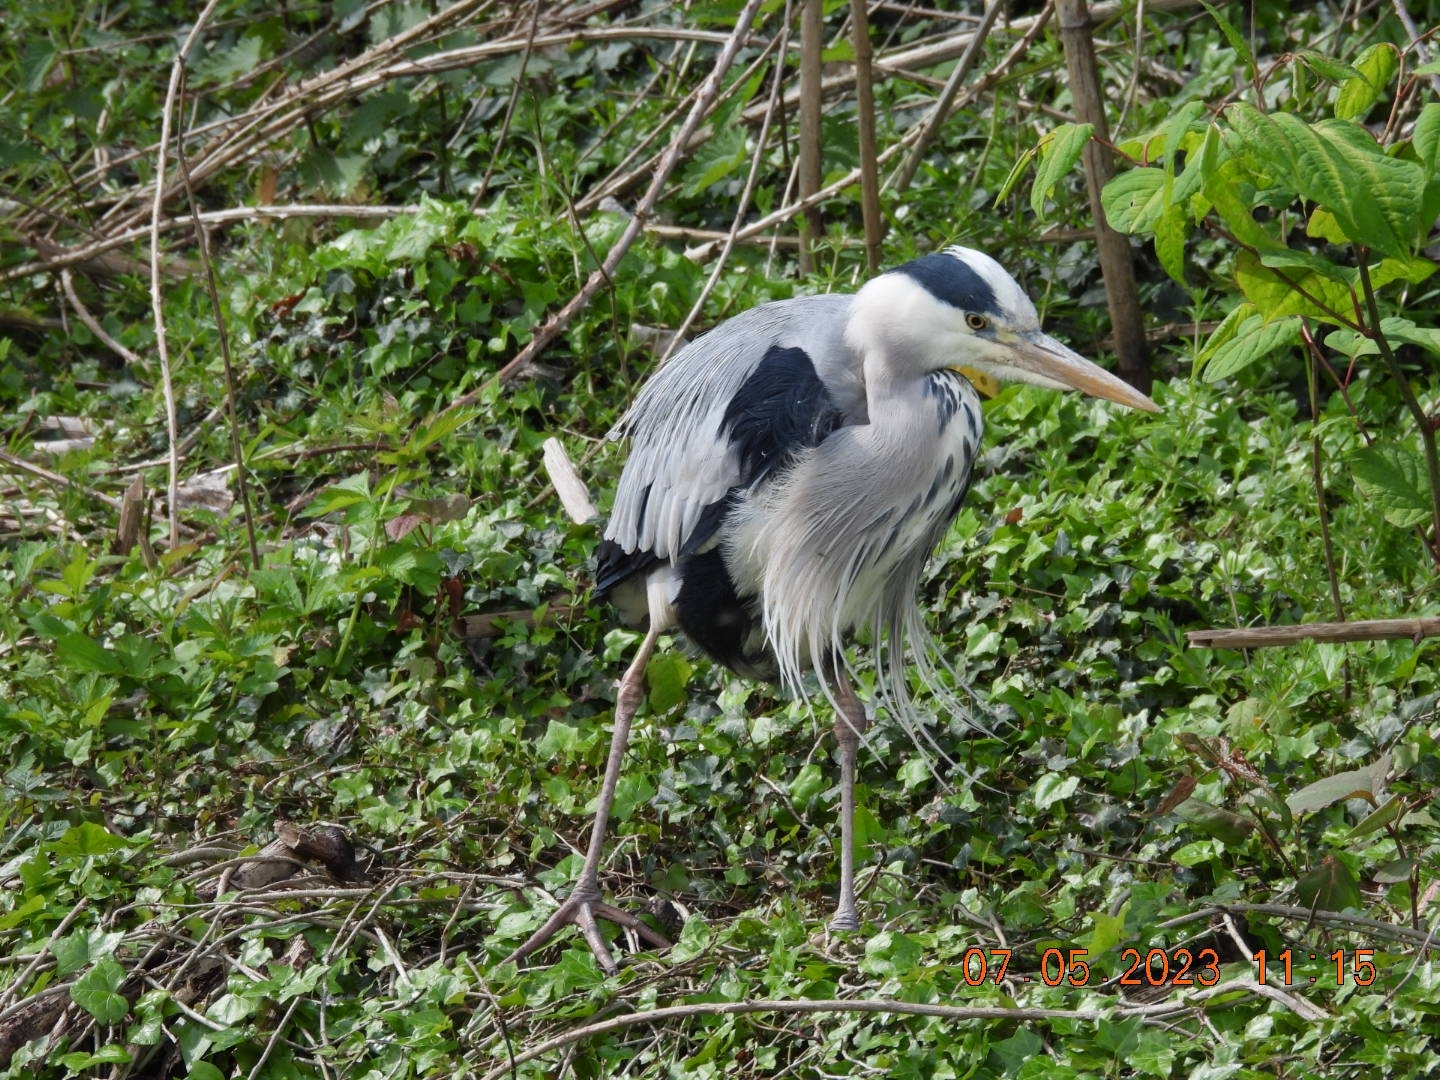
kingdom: Animalia
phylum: Chordata
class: Aves
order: Pelecaniformes
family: Ardeidae
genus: Ardea
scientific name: Ardea cinerea
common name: Grey heron
